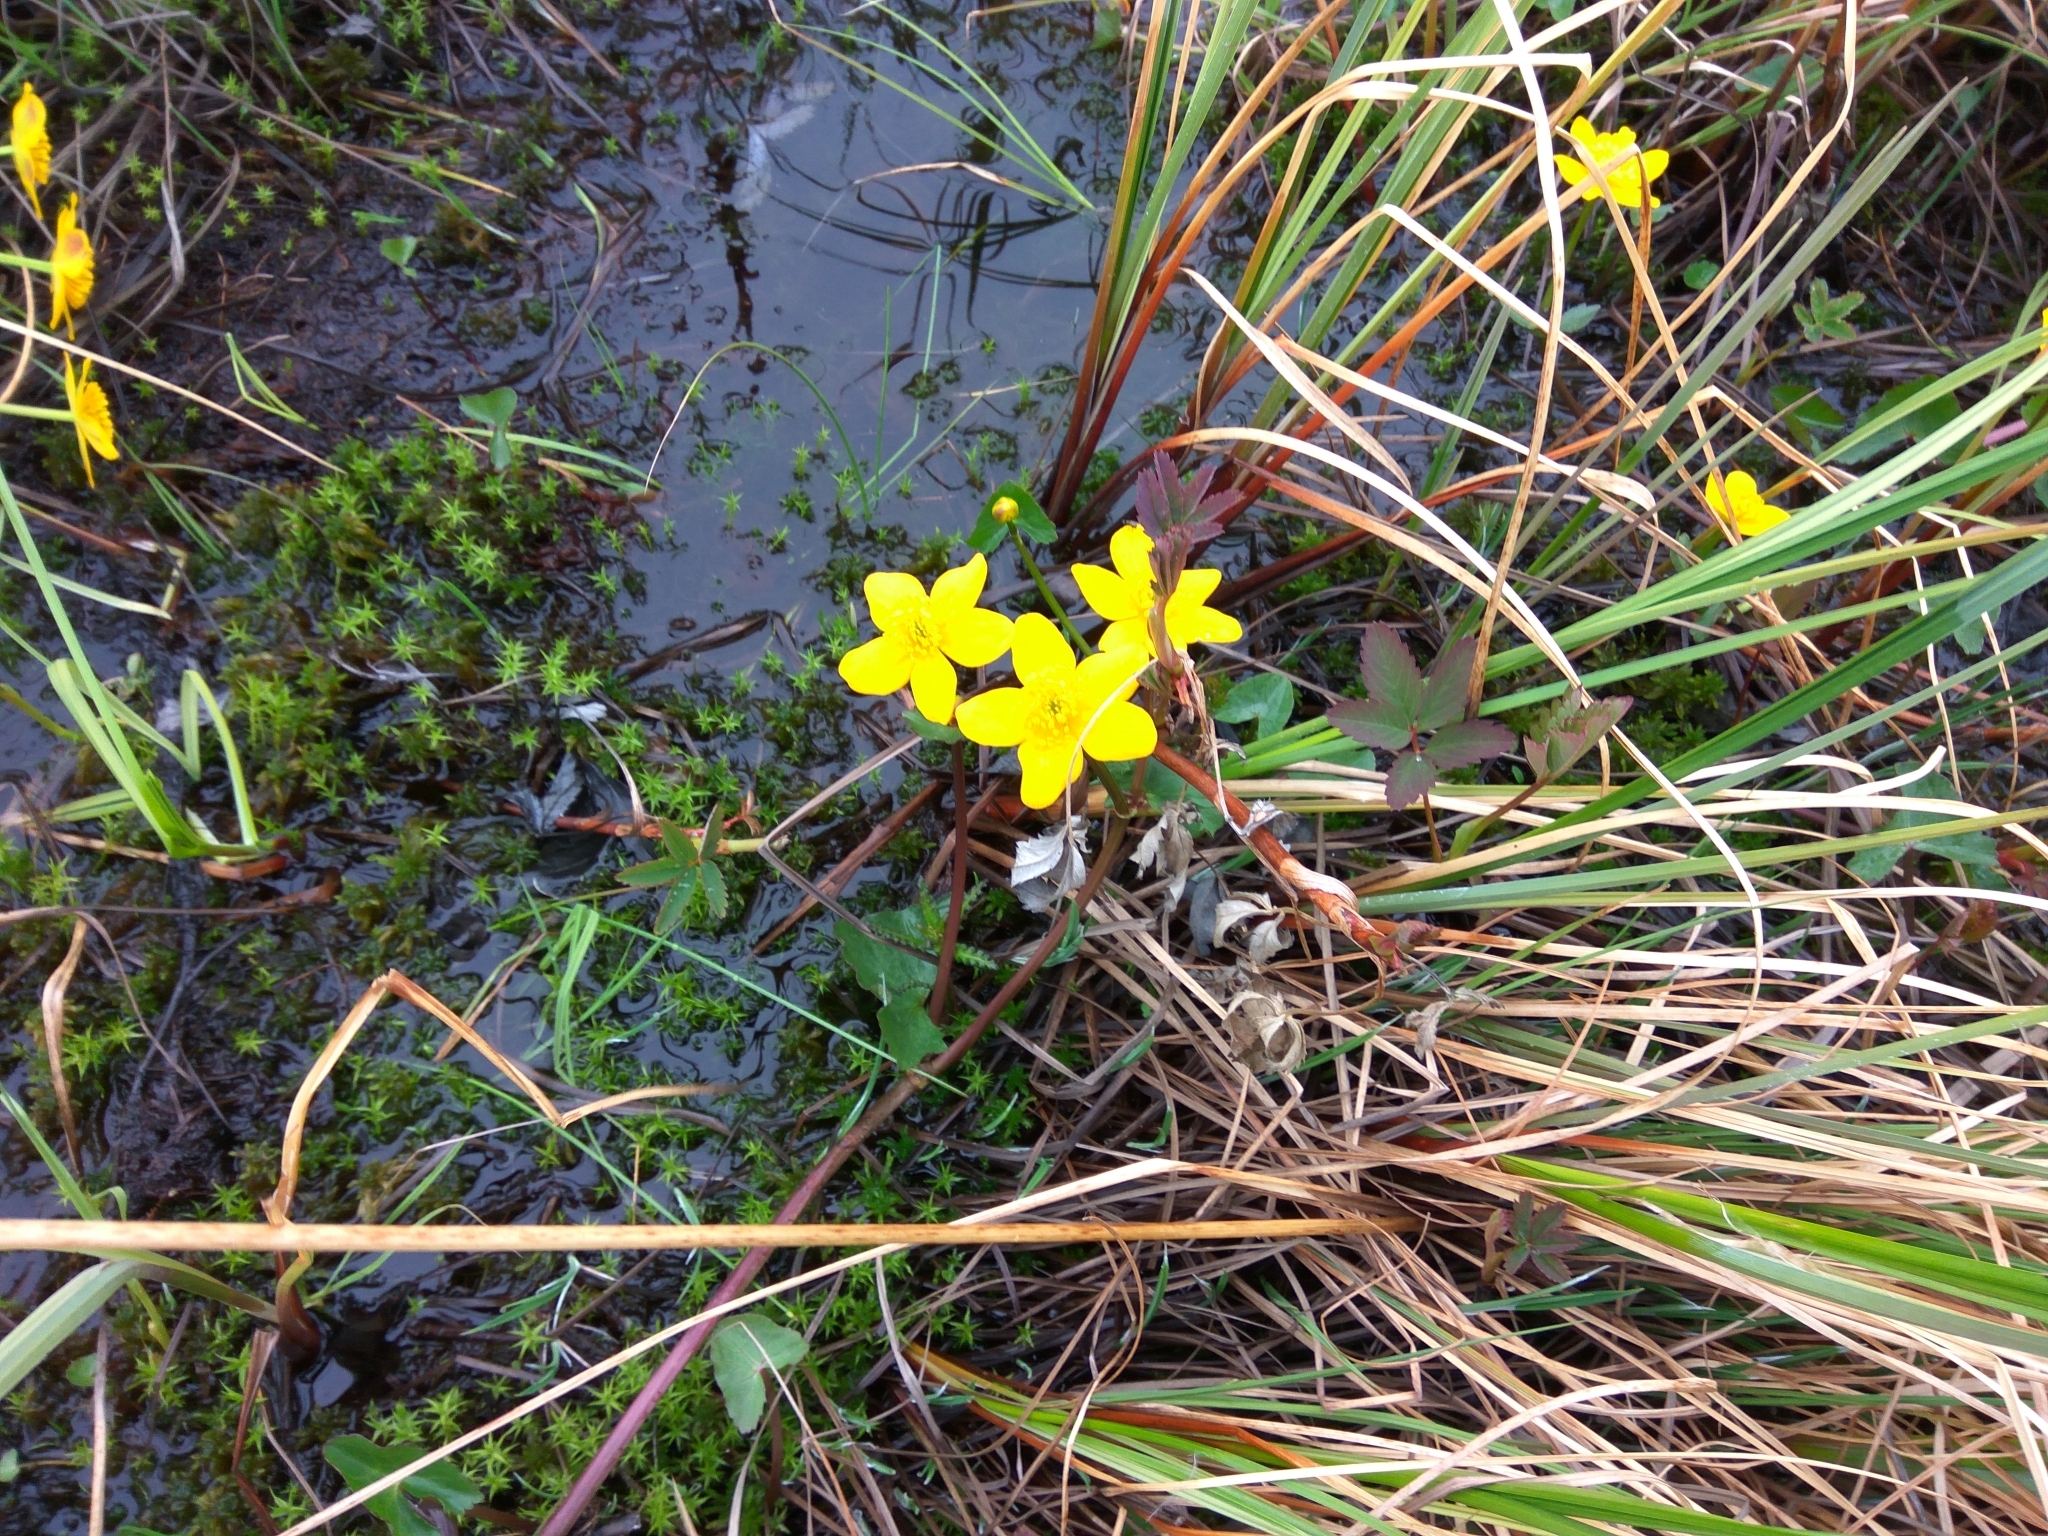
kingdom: Plantae
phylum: Tracheophyta
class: Magnoliopsida
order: Ranunculales
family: Ranunculaceae
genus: Caltha
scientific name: Caltha palustris
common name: Marsh marigold
